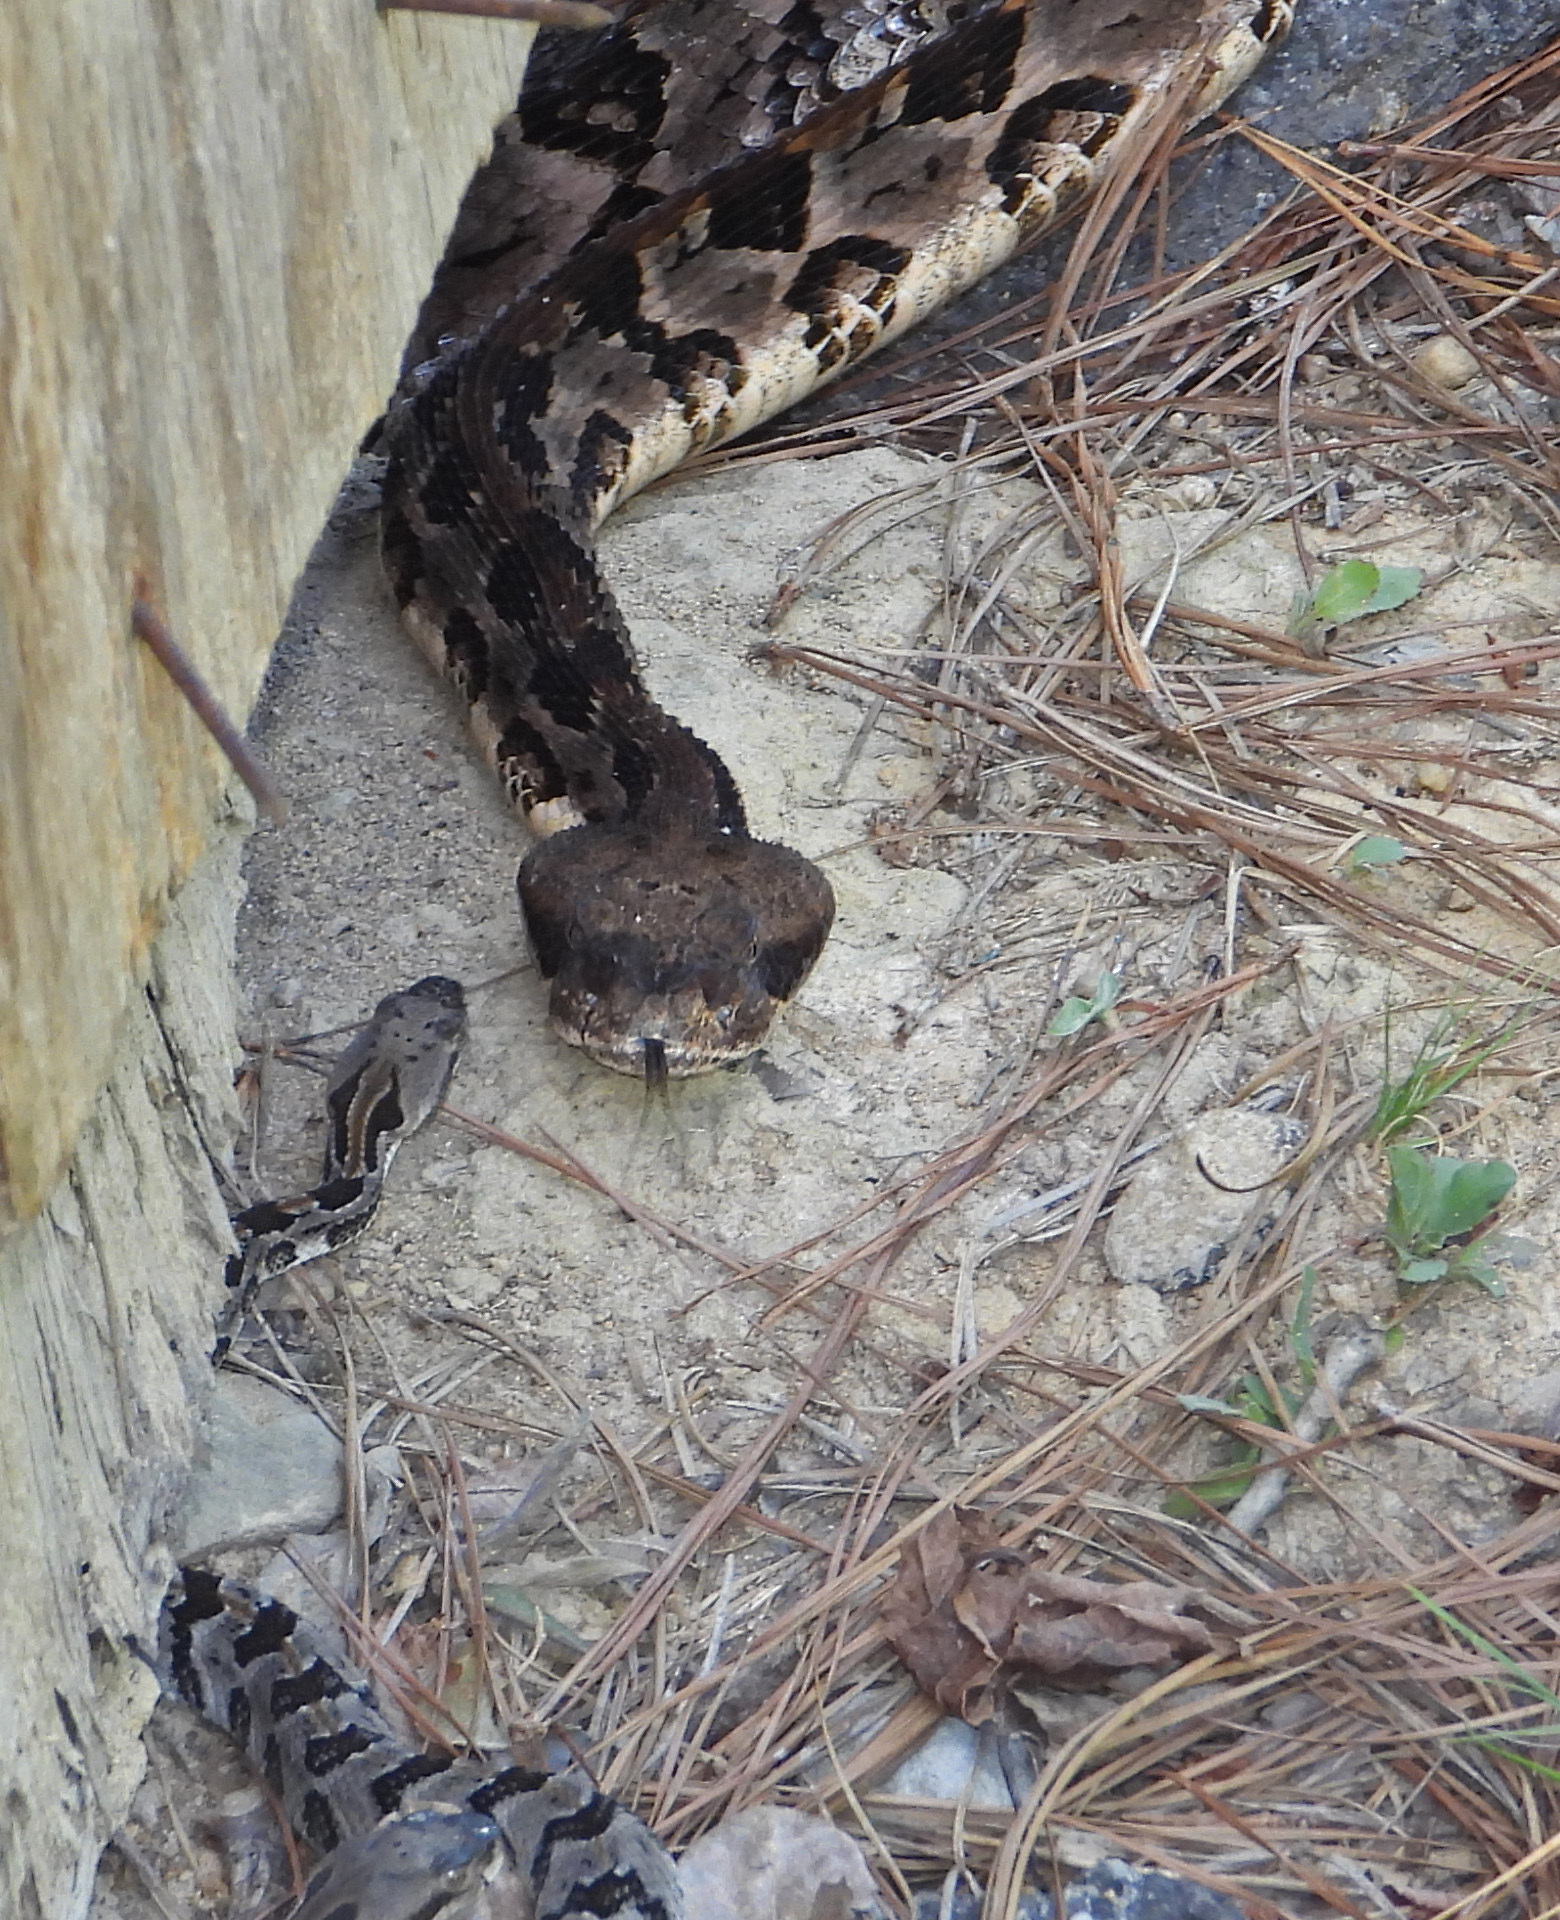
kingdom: Animalia
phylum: Chordata
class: Squamata
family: Viperidae
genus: Crotalus
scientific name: Crotalus horridus
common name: Timber rattlesnake
